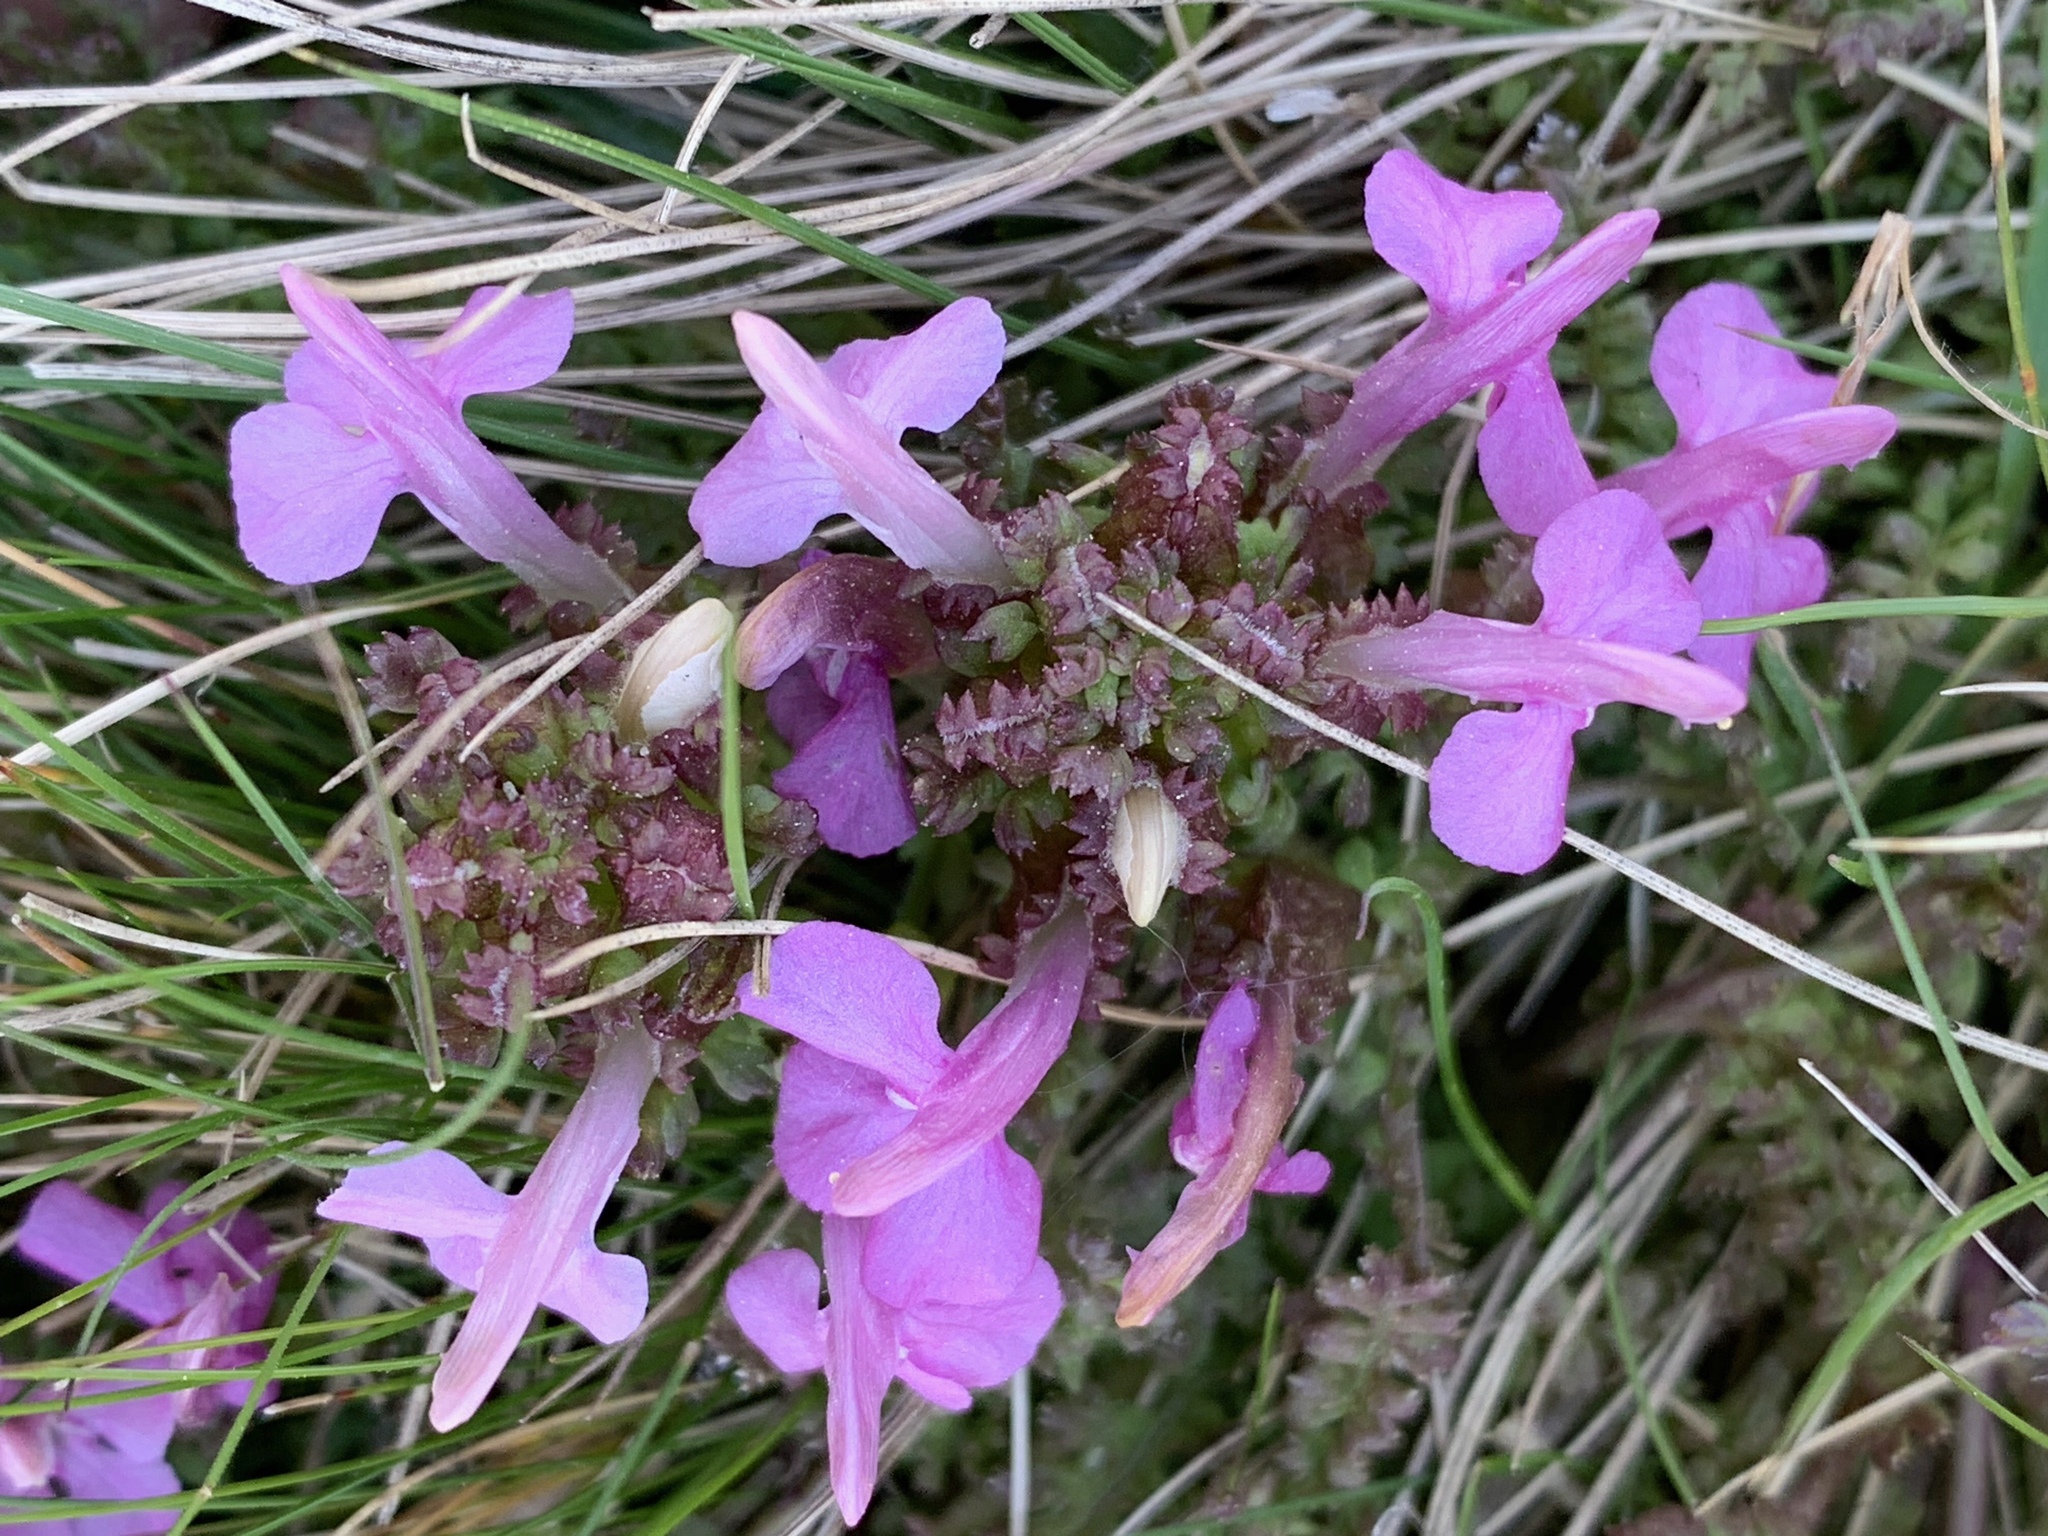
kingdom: Plantae
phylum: Tracheophyta
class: Magnoliopsida
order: Lamiales
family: Orobanchaceae
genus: Pedicularis
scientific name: Pedicularis sylvatica
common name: Lousewort
